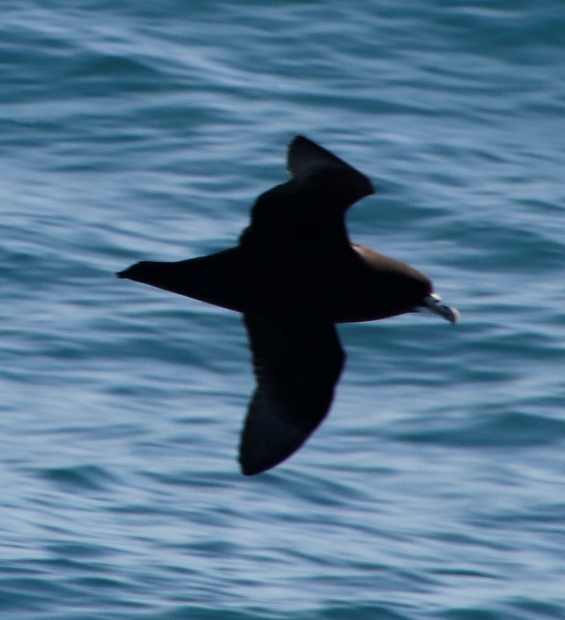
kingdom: Animalia
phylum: Chordata
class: Aves
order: Procellariiformes
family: Procellariidae
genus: Procellaria
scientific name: Procellaria aequinoctialis
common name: White-chinned petrel
